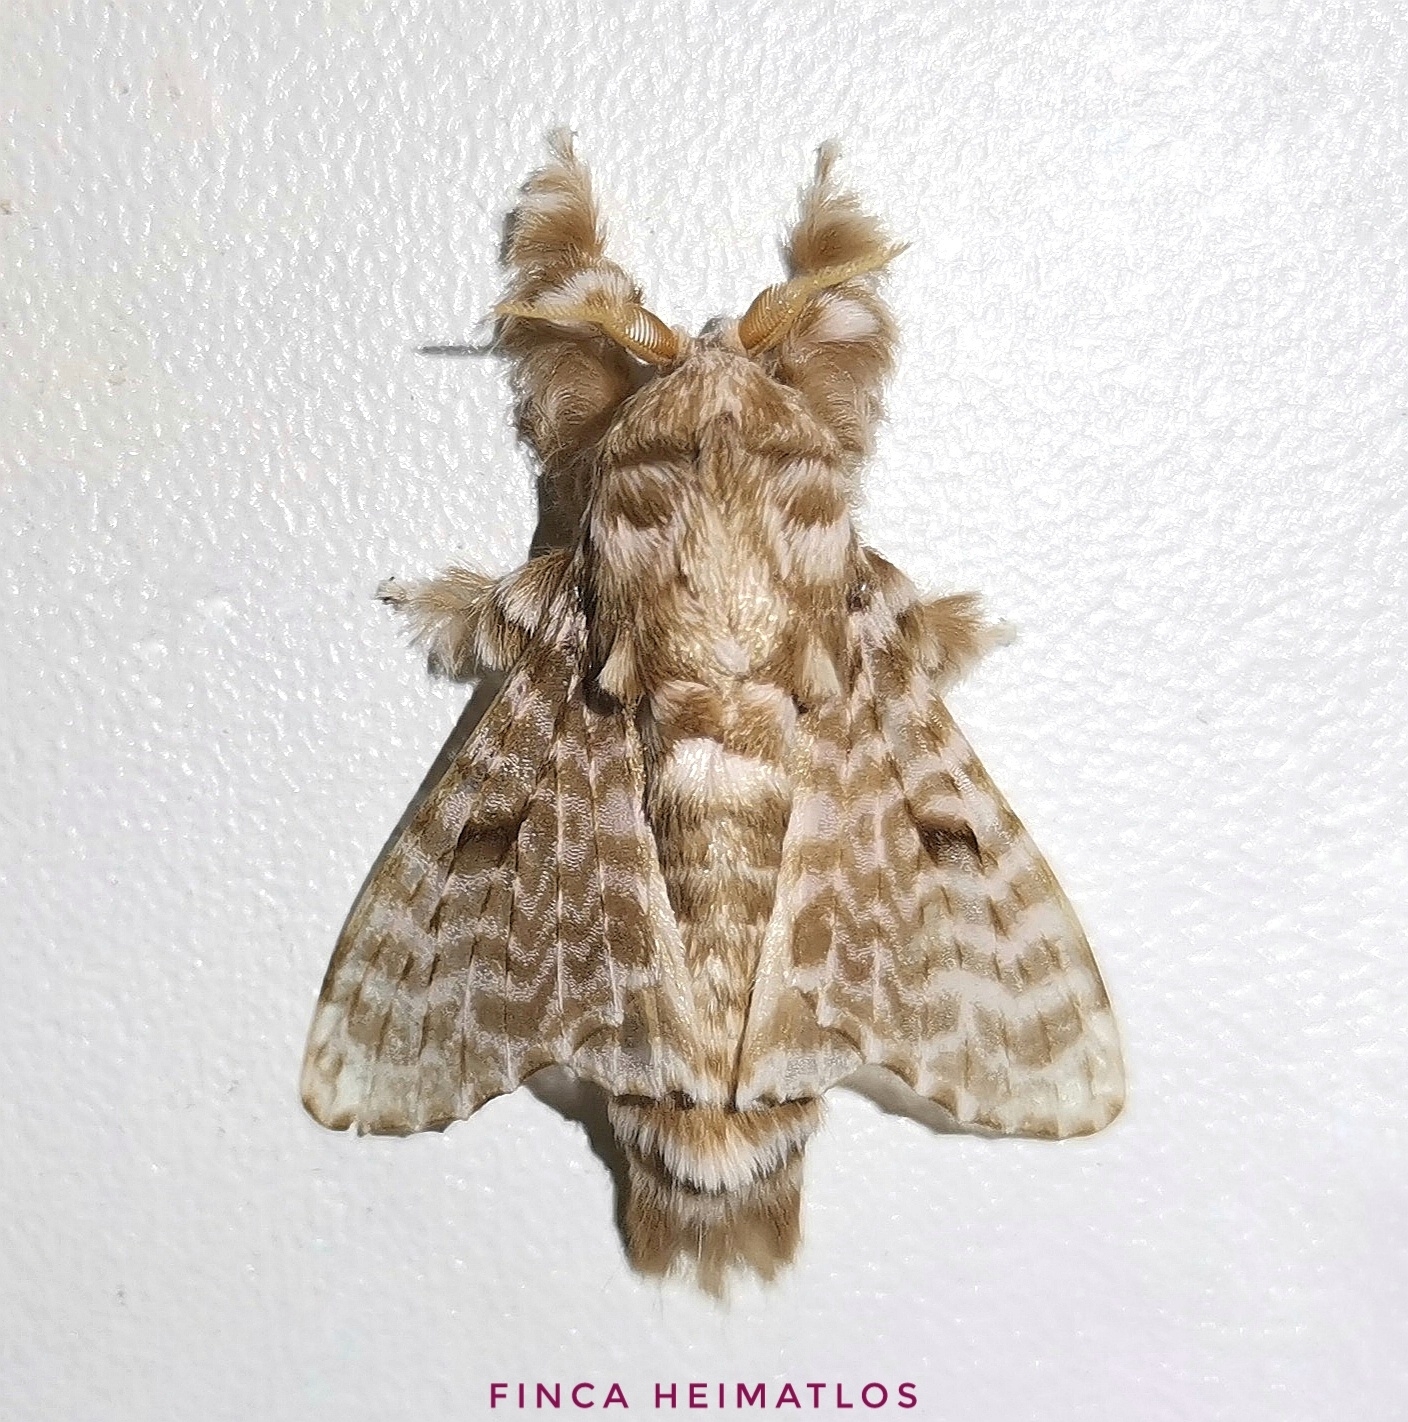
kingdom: Animalia
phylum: Arthropoda
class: Insecta
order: Lepidoptera
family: Lasiocampidae
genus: Tytocha
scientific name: Tytocha lineata
